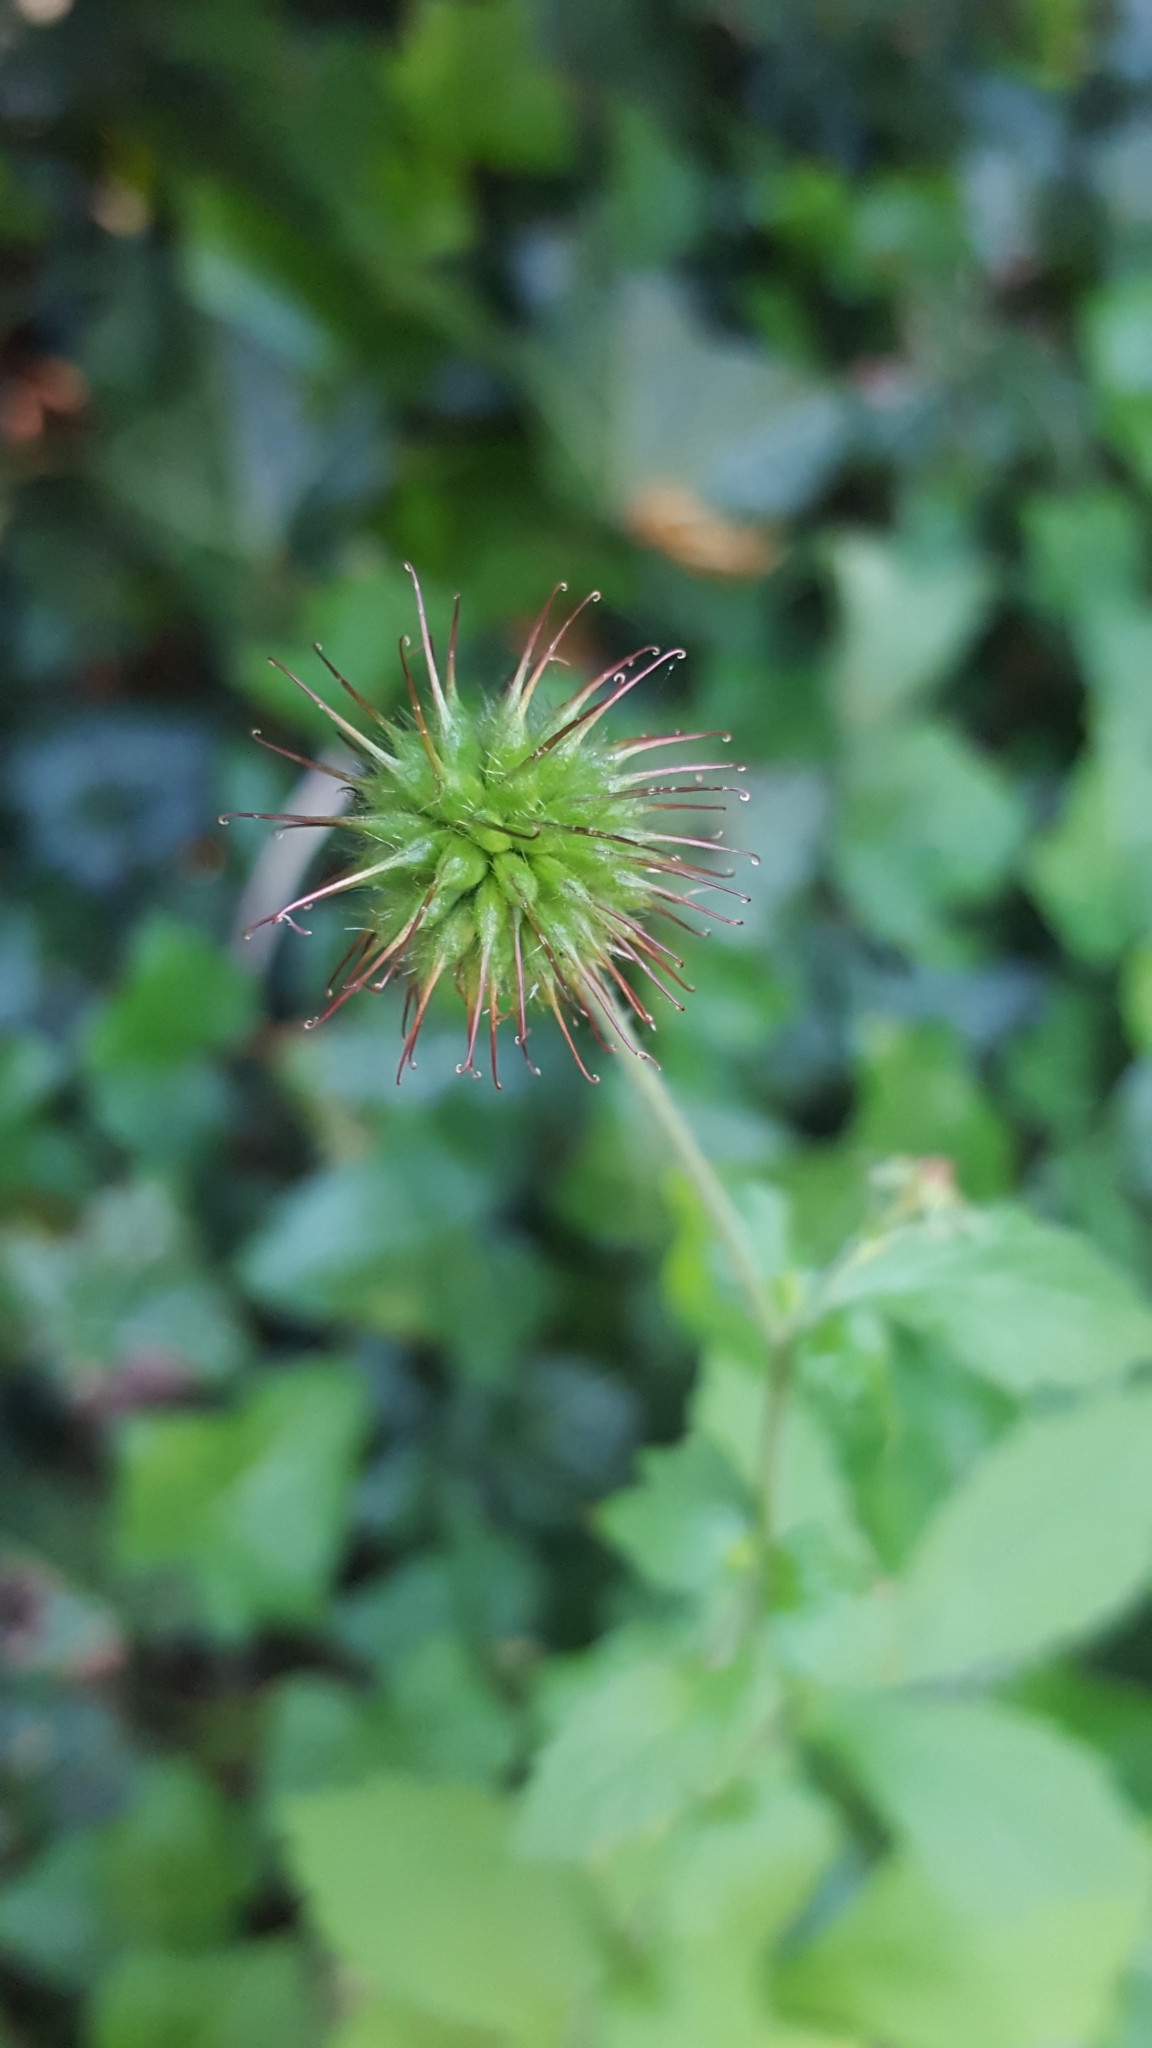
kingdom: Plantae
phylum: Tracheophyta
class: Magnoliopsida
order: Rosales
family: Rosaceae
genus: Geum
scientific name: Geum urbanum
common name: Wood avens
